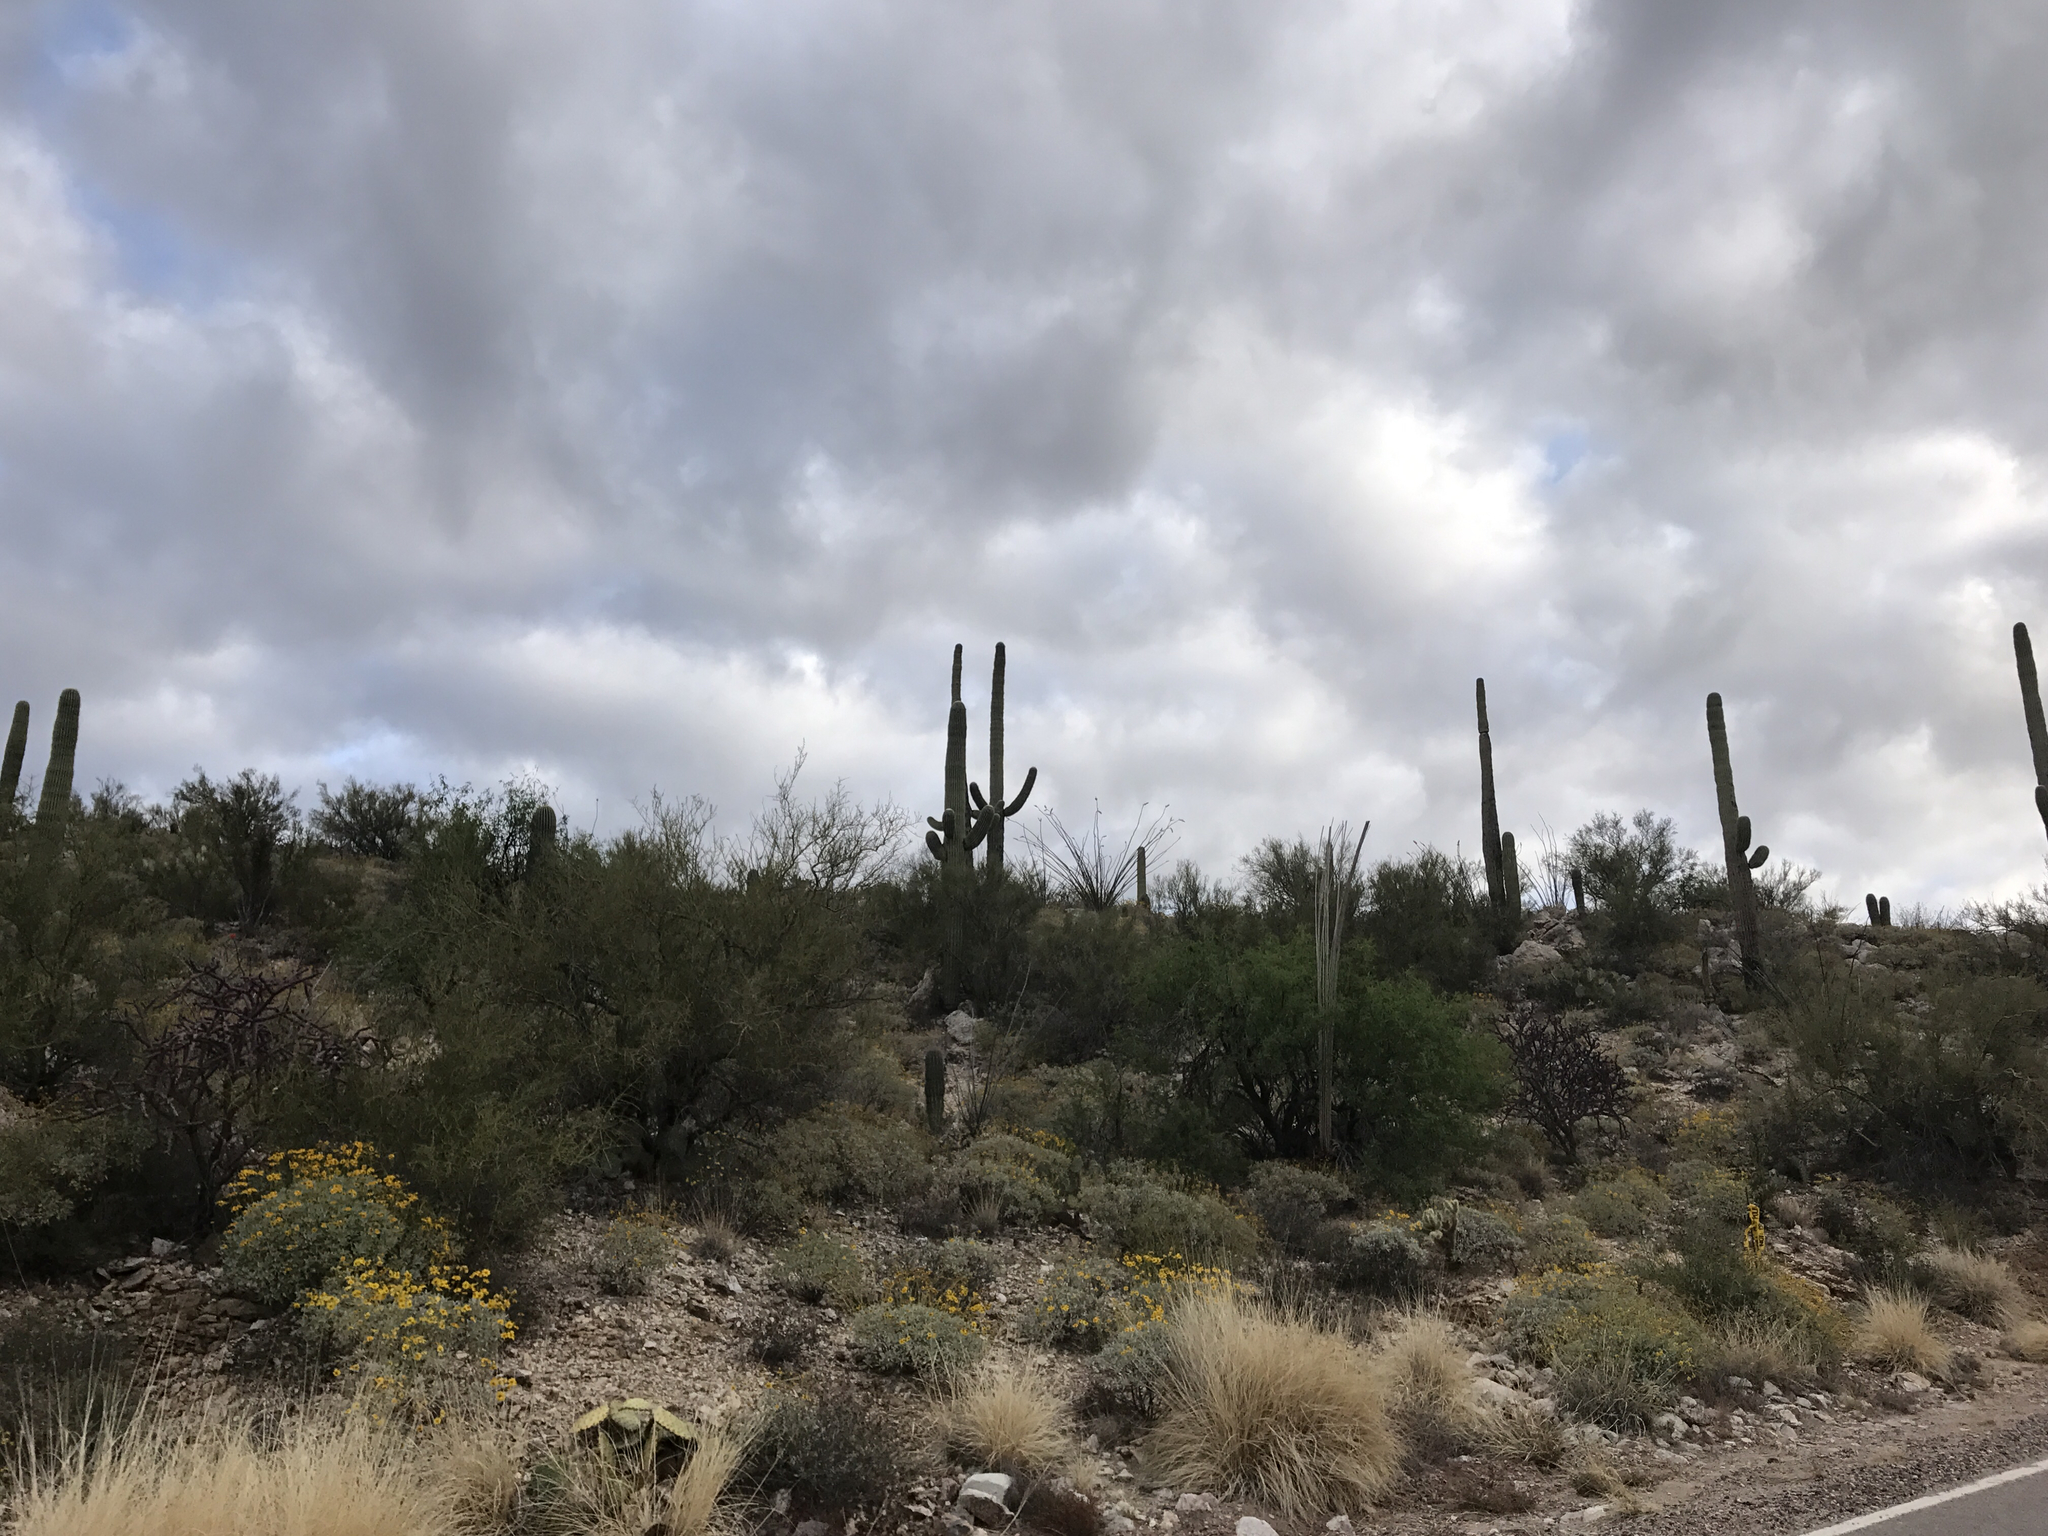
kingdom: Plantae
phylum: Tracheophyta
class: Magnoliopsida
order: Caryophyllales
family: Cactaceae
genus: Carnegiea
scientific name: Carnegiea gigantea
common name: Saguaro
